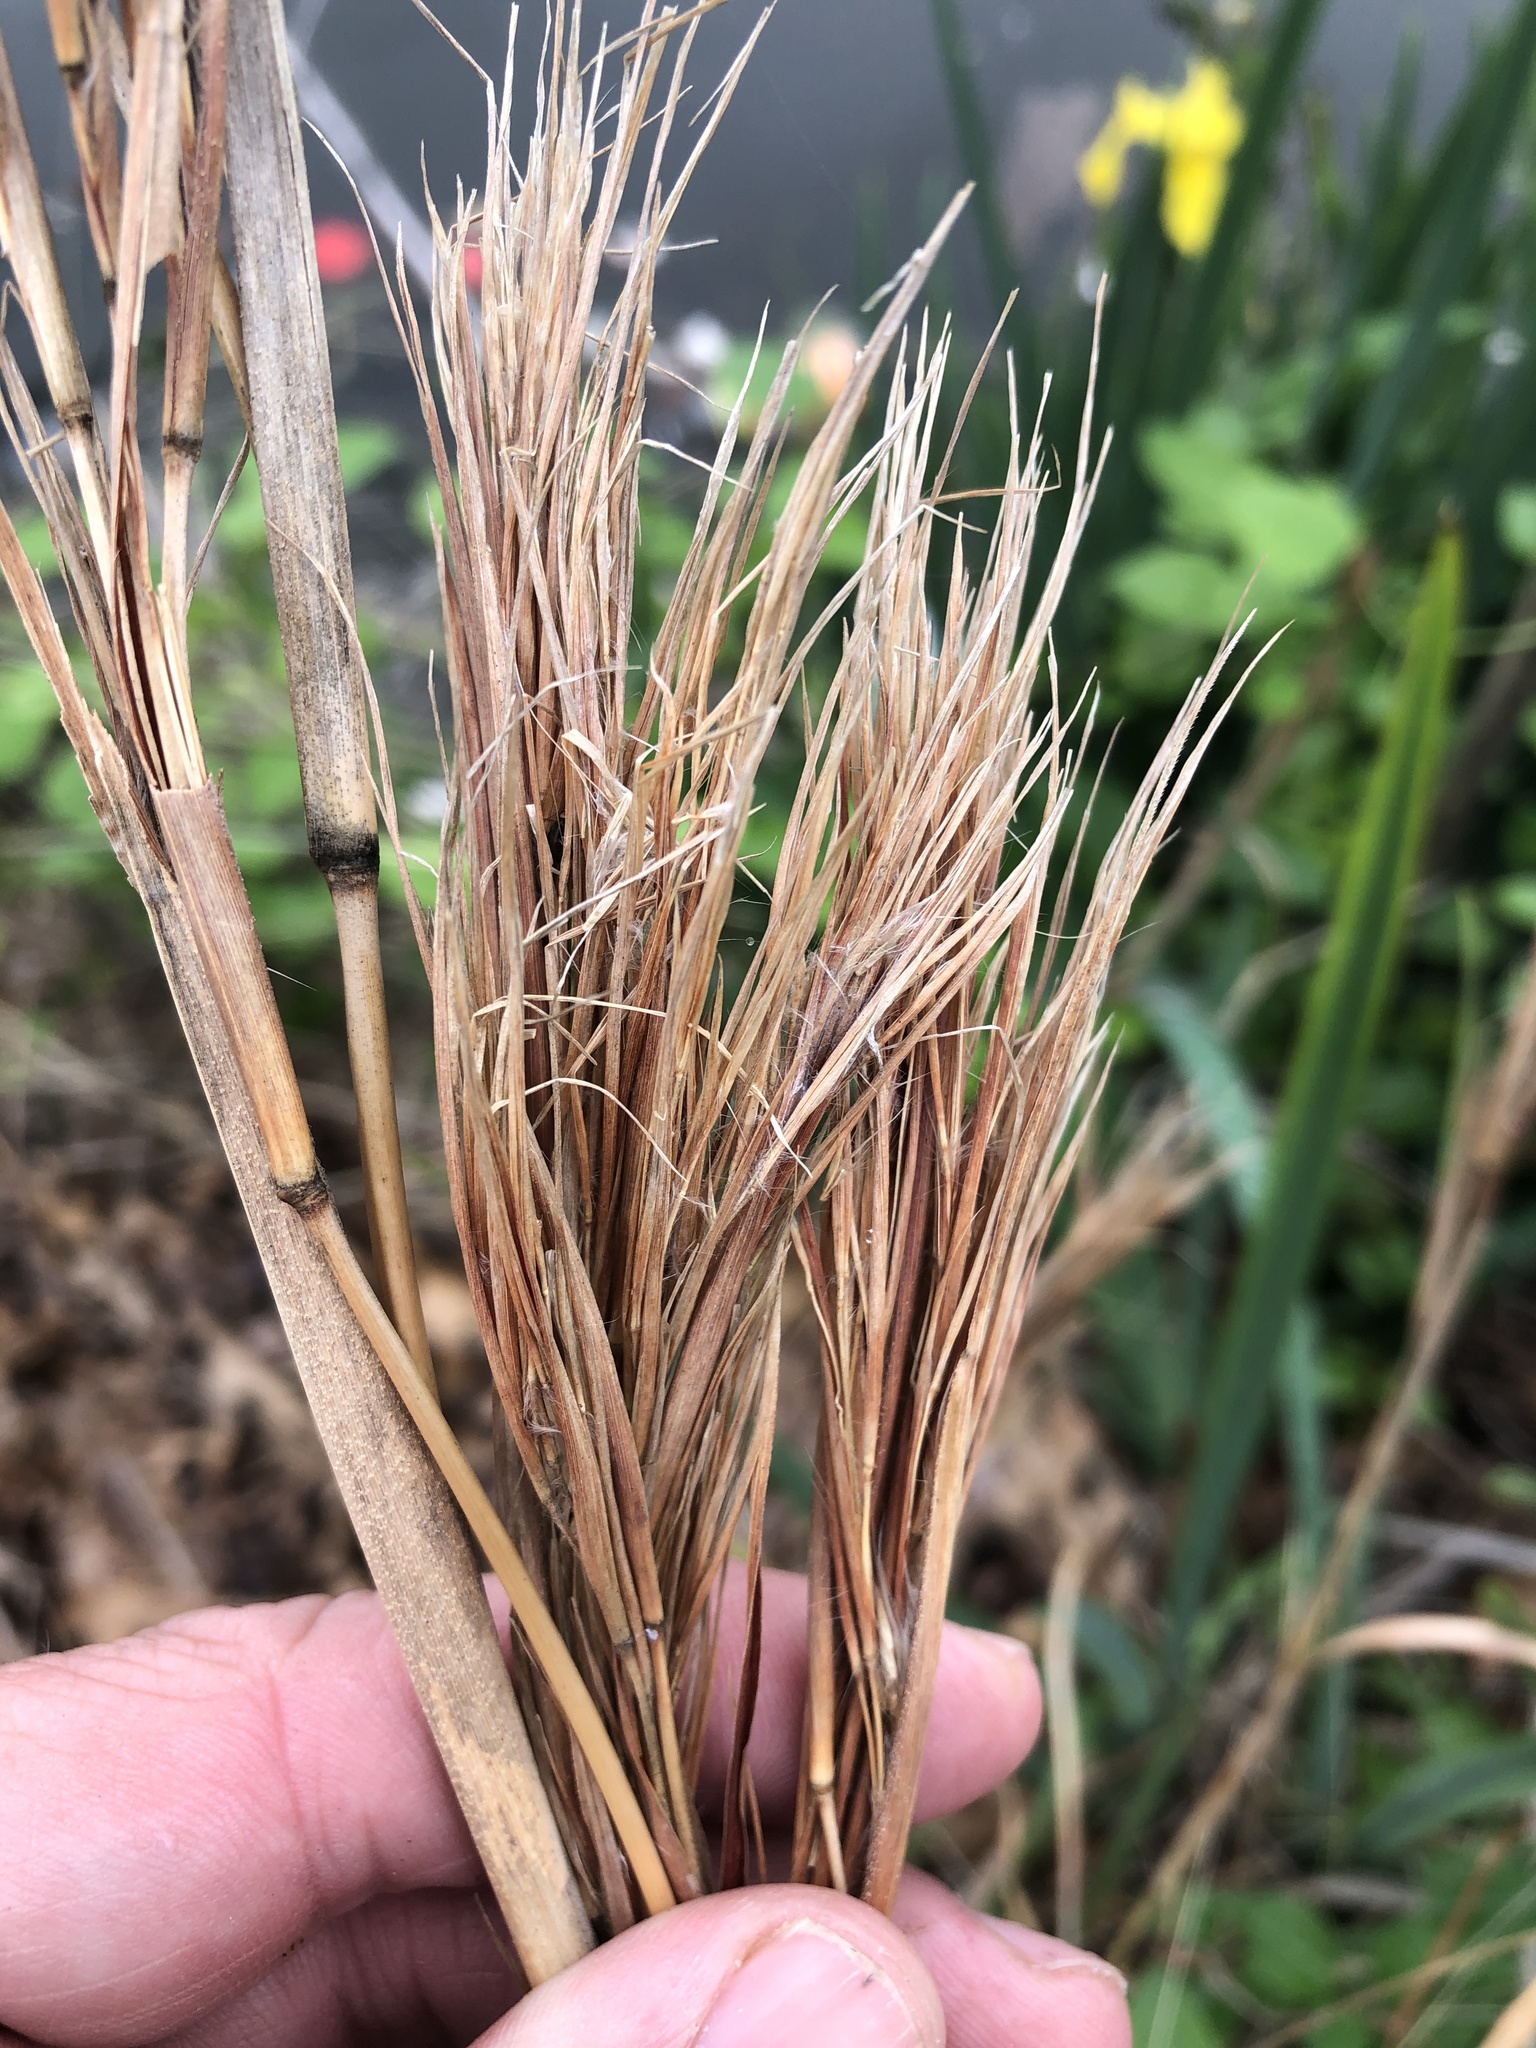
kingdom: Plantae
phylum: Tracheophyta
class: Liliopsida
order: Poales
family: Poaceae
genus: Andropogon
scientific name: Andropogon tenuispatheus
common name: Bushy bluestem
